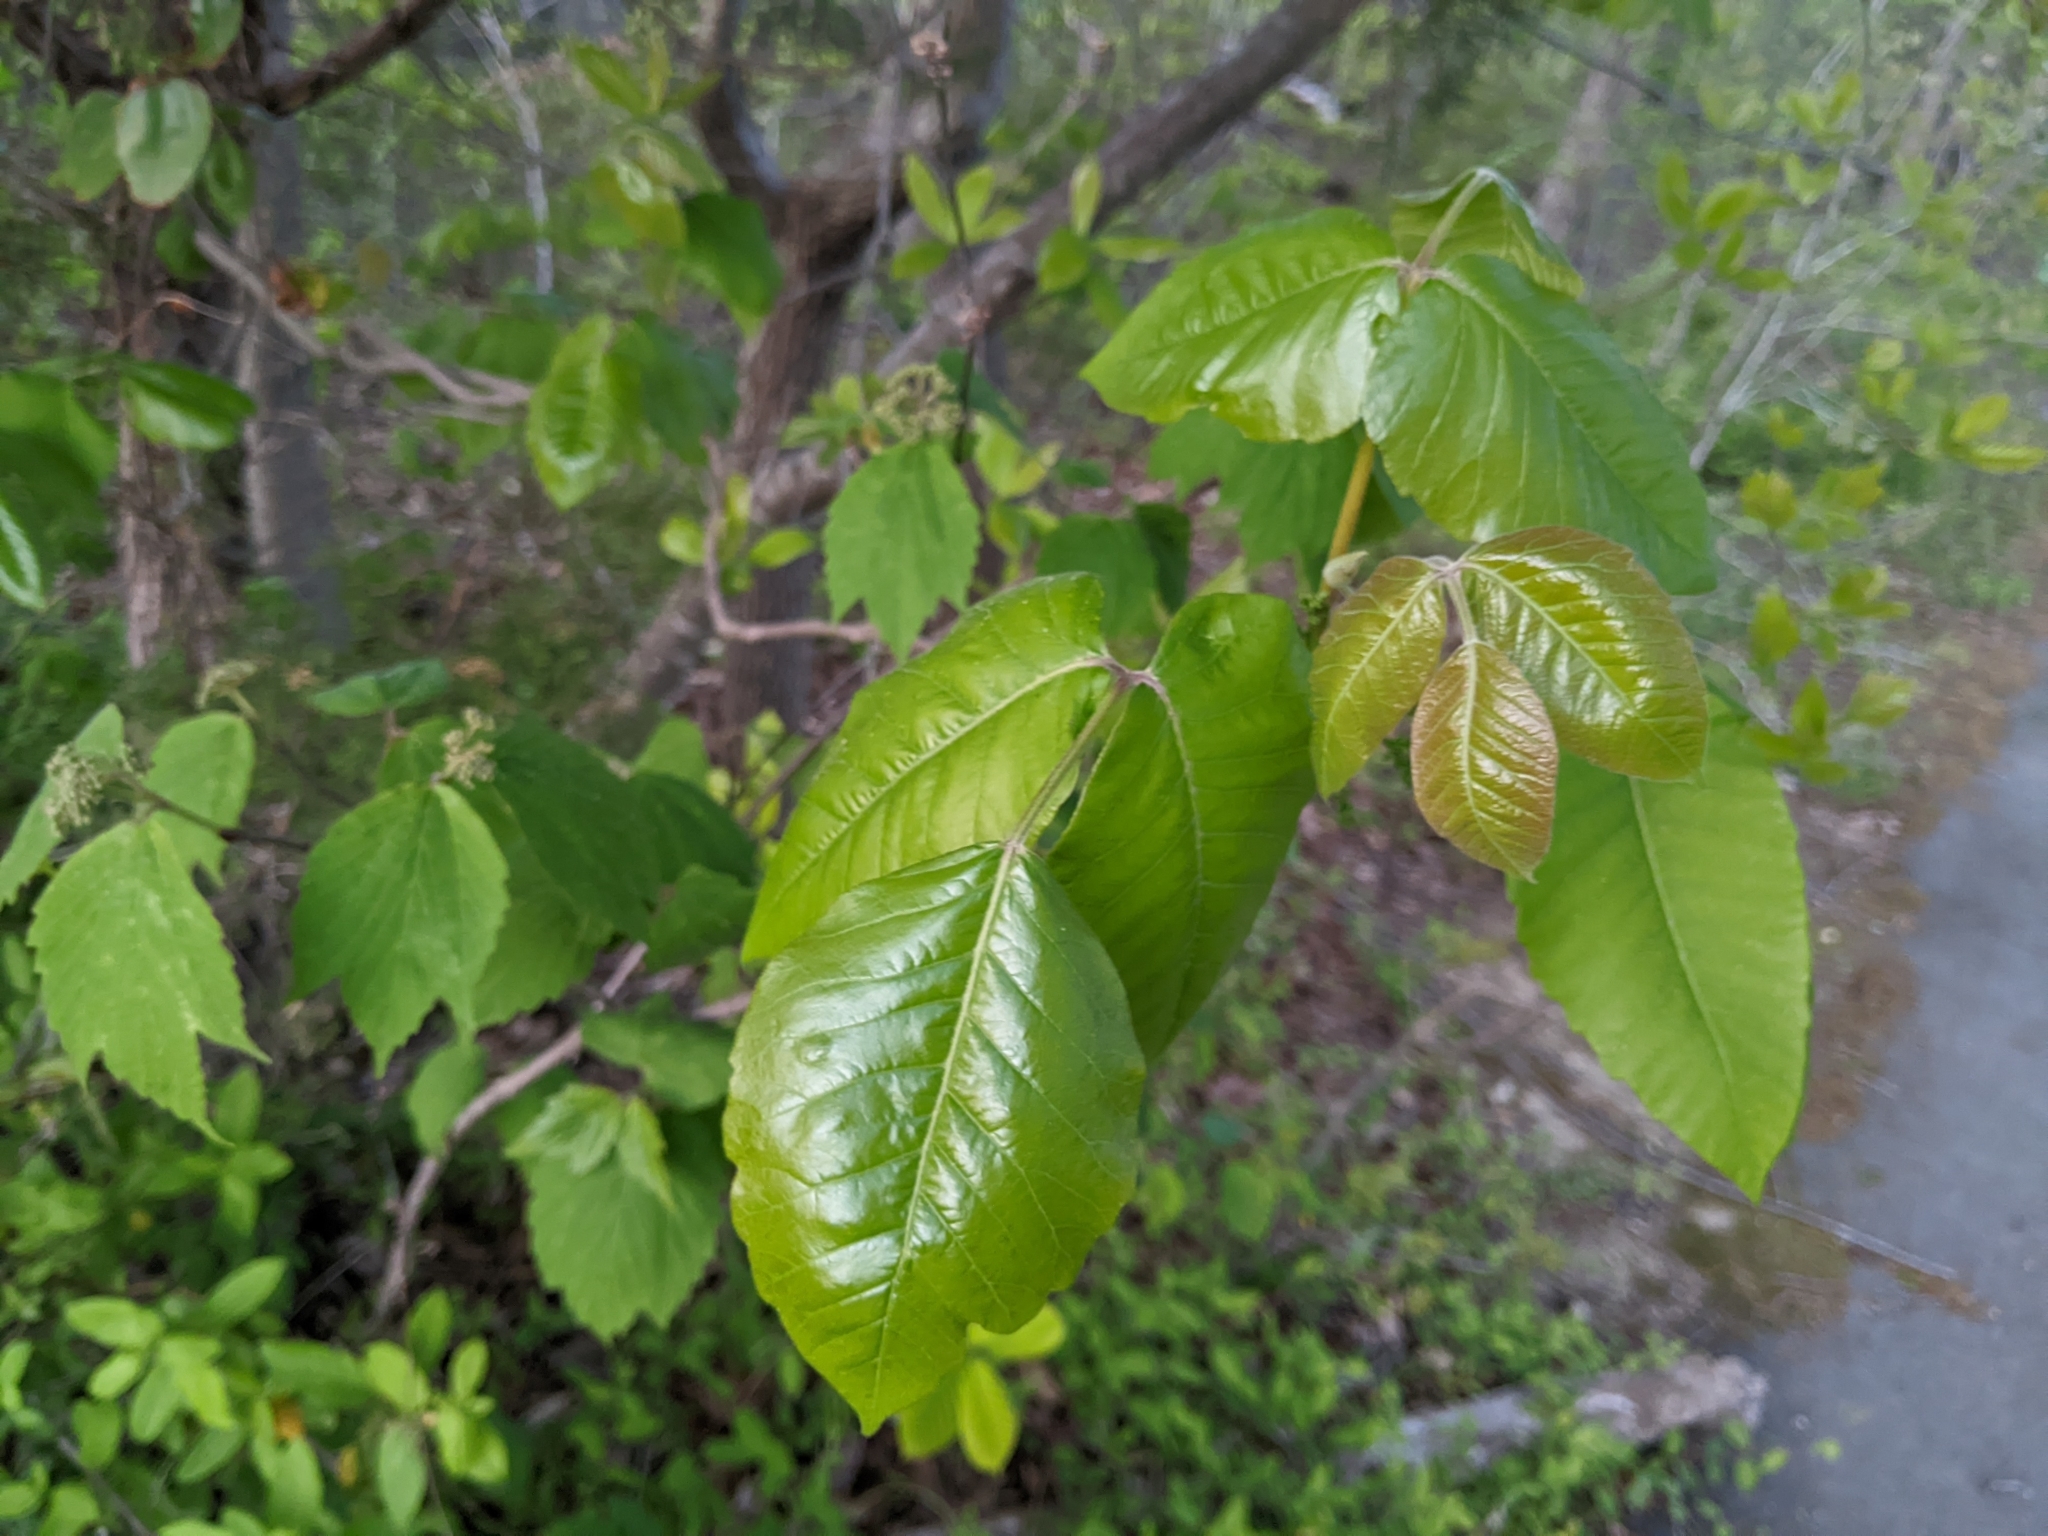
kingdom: Plantae
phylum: Tracheophyta
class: Magnoliopsida
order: Sapindales
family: Anacardiaceae
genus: Toxicodendron
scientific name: Toxicodendron radicans
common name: Poison ivy
